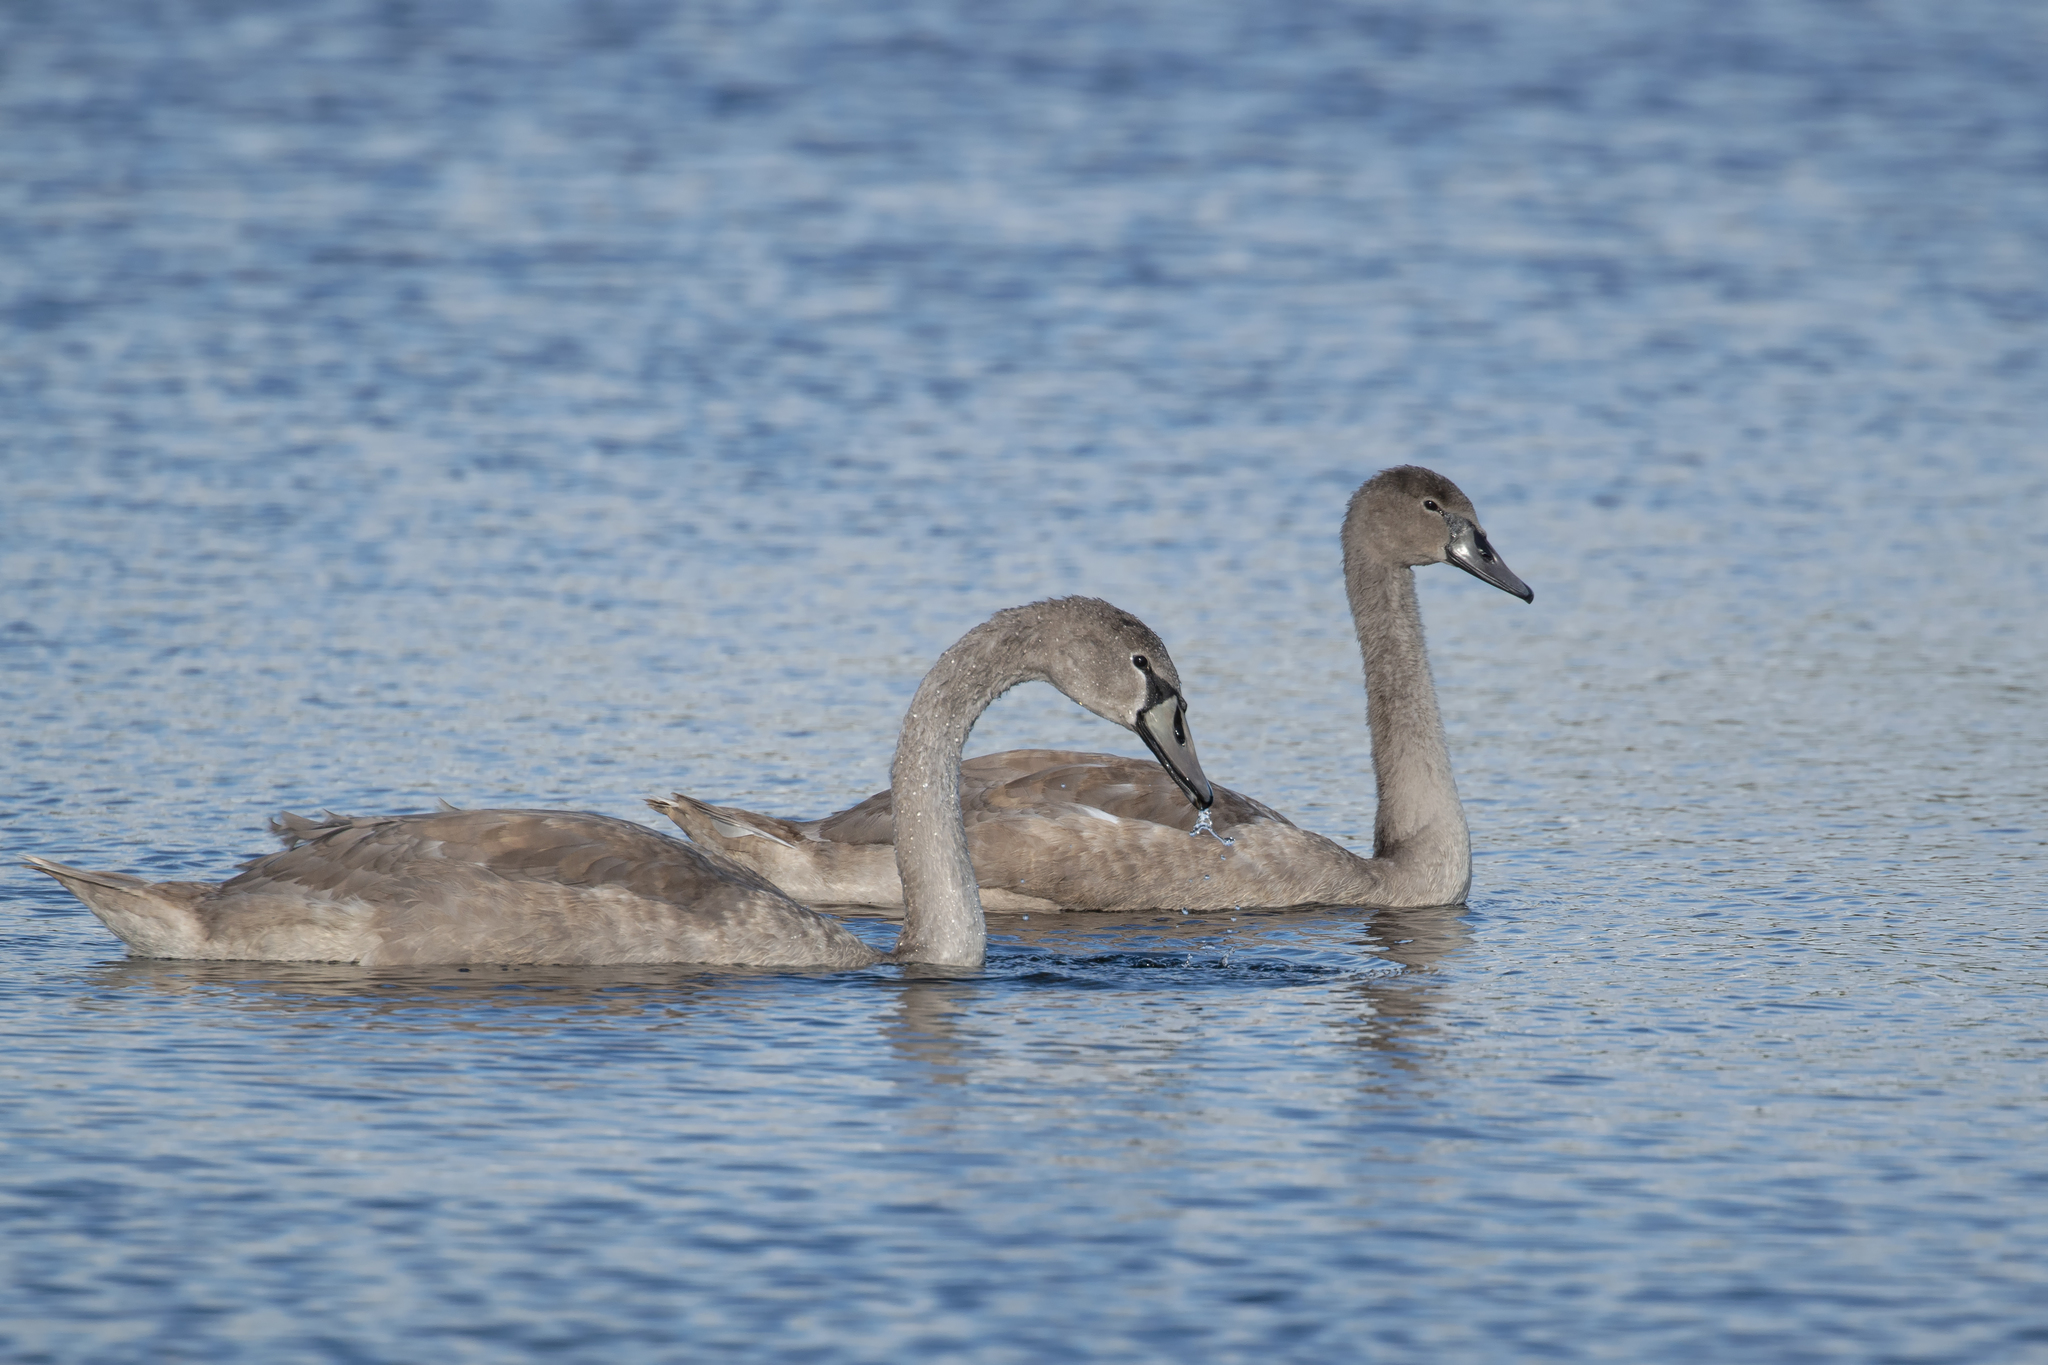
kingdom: Animalia
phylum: Chordata
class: Aves
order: Anseriformes
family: Anatidae
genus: Cygnus
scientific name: Cygnus olor
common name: Mute swan
